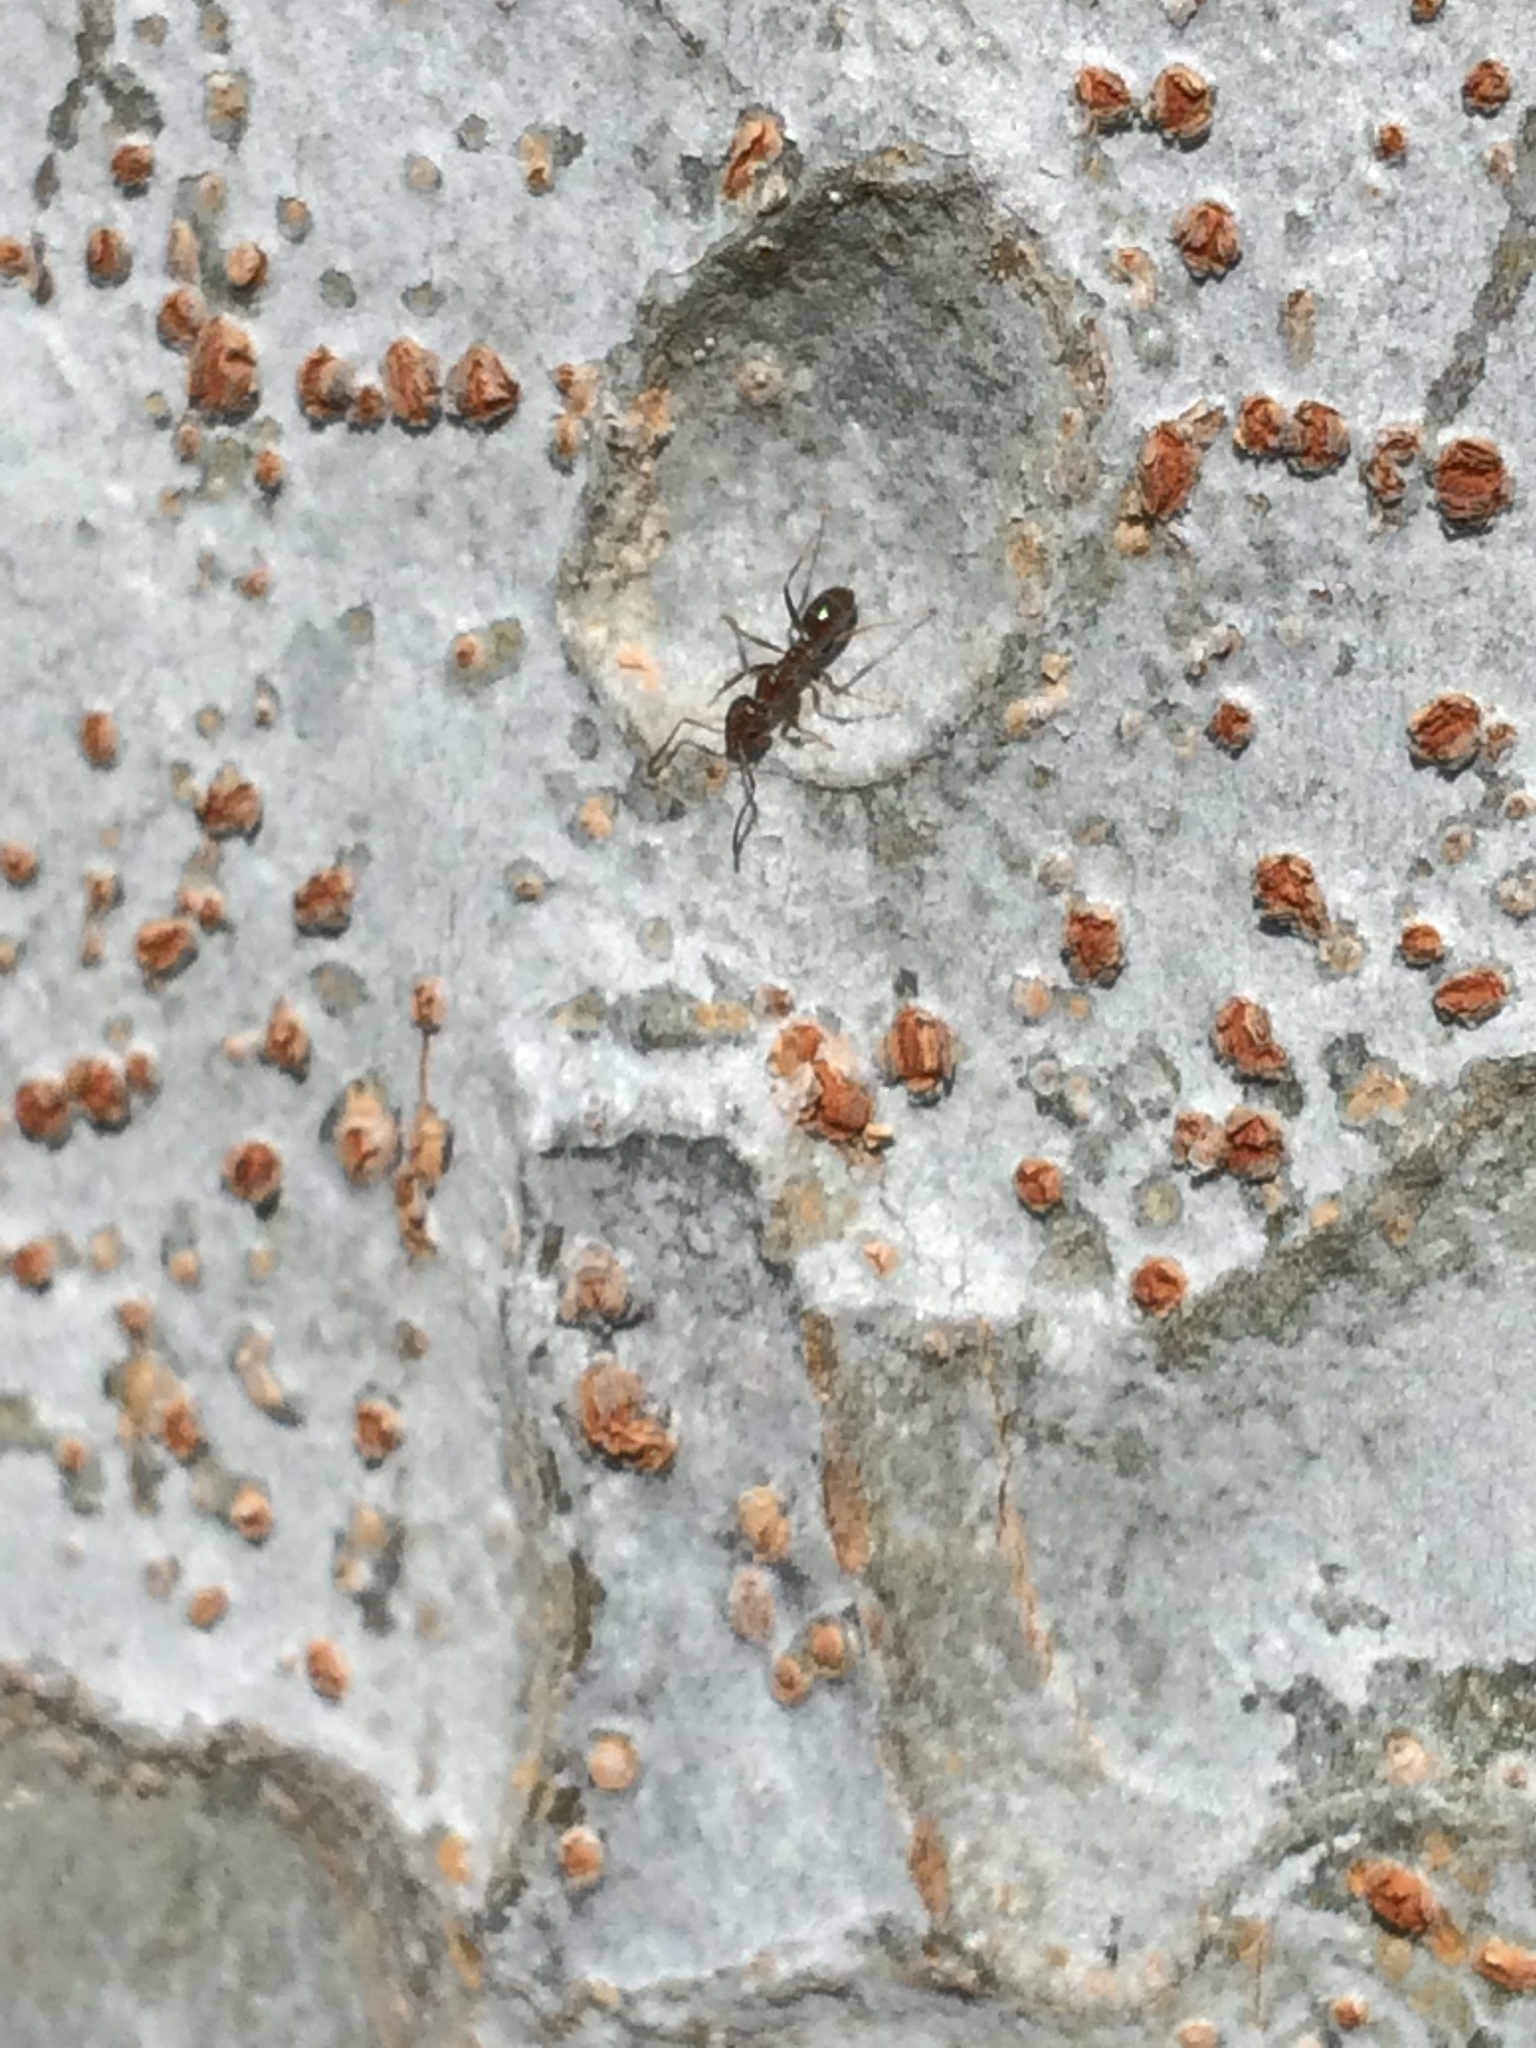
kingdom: Animalia
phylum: Arthropoda
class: Insecta
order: Hymenoptera
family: Formicidae
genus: Linepithema
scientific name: Linepithema humile
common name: Argentine ant
